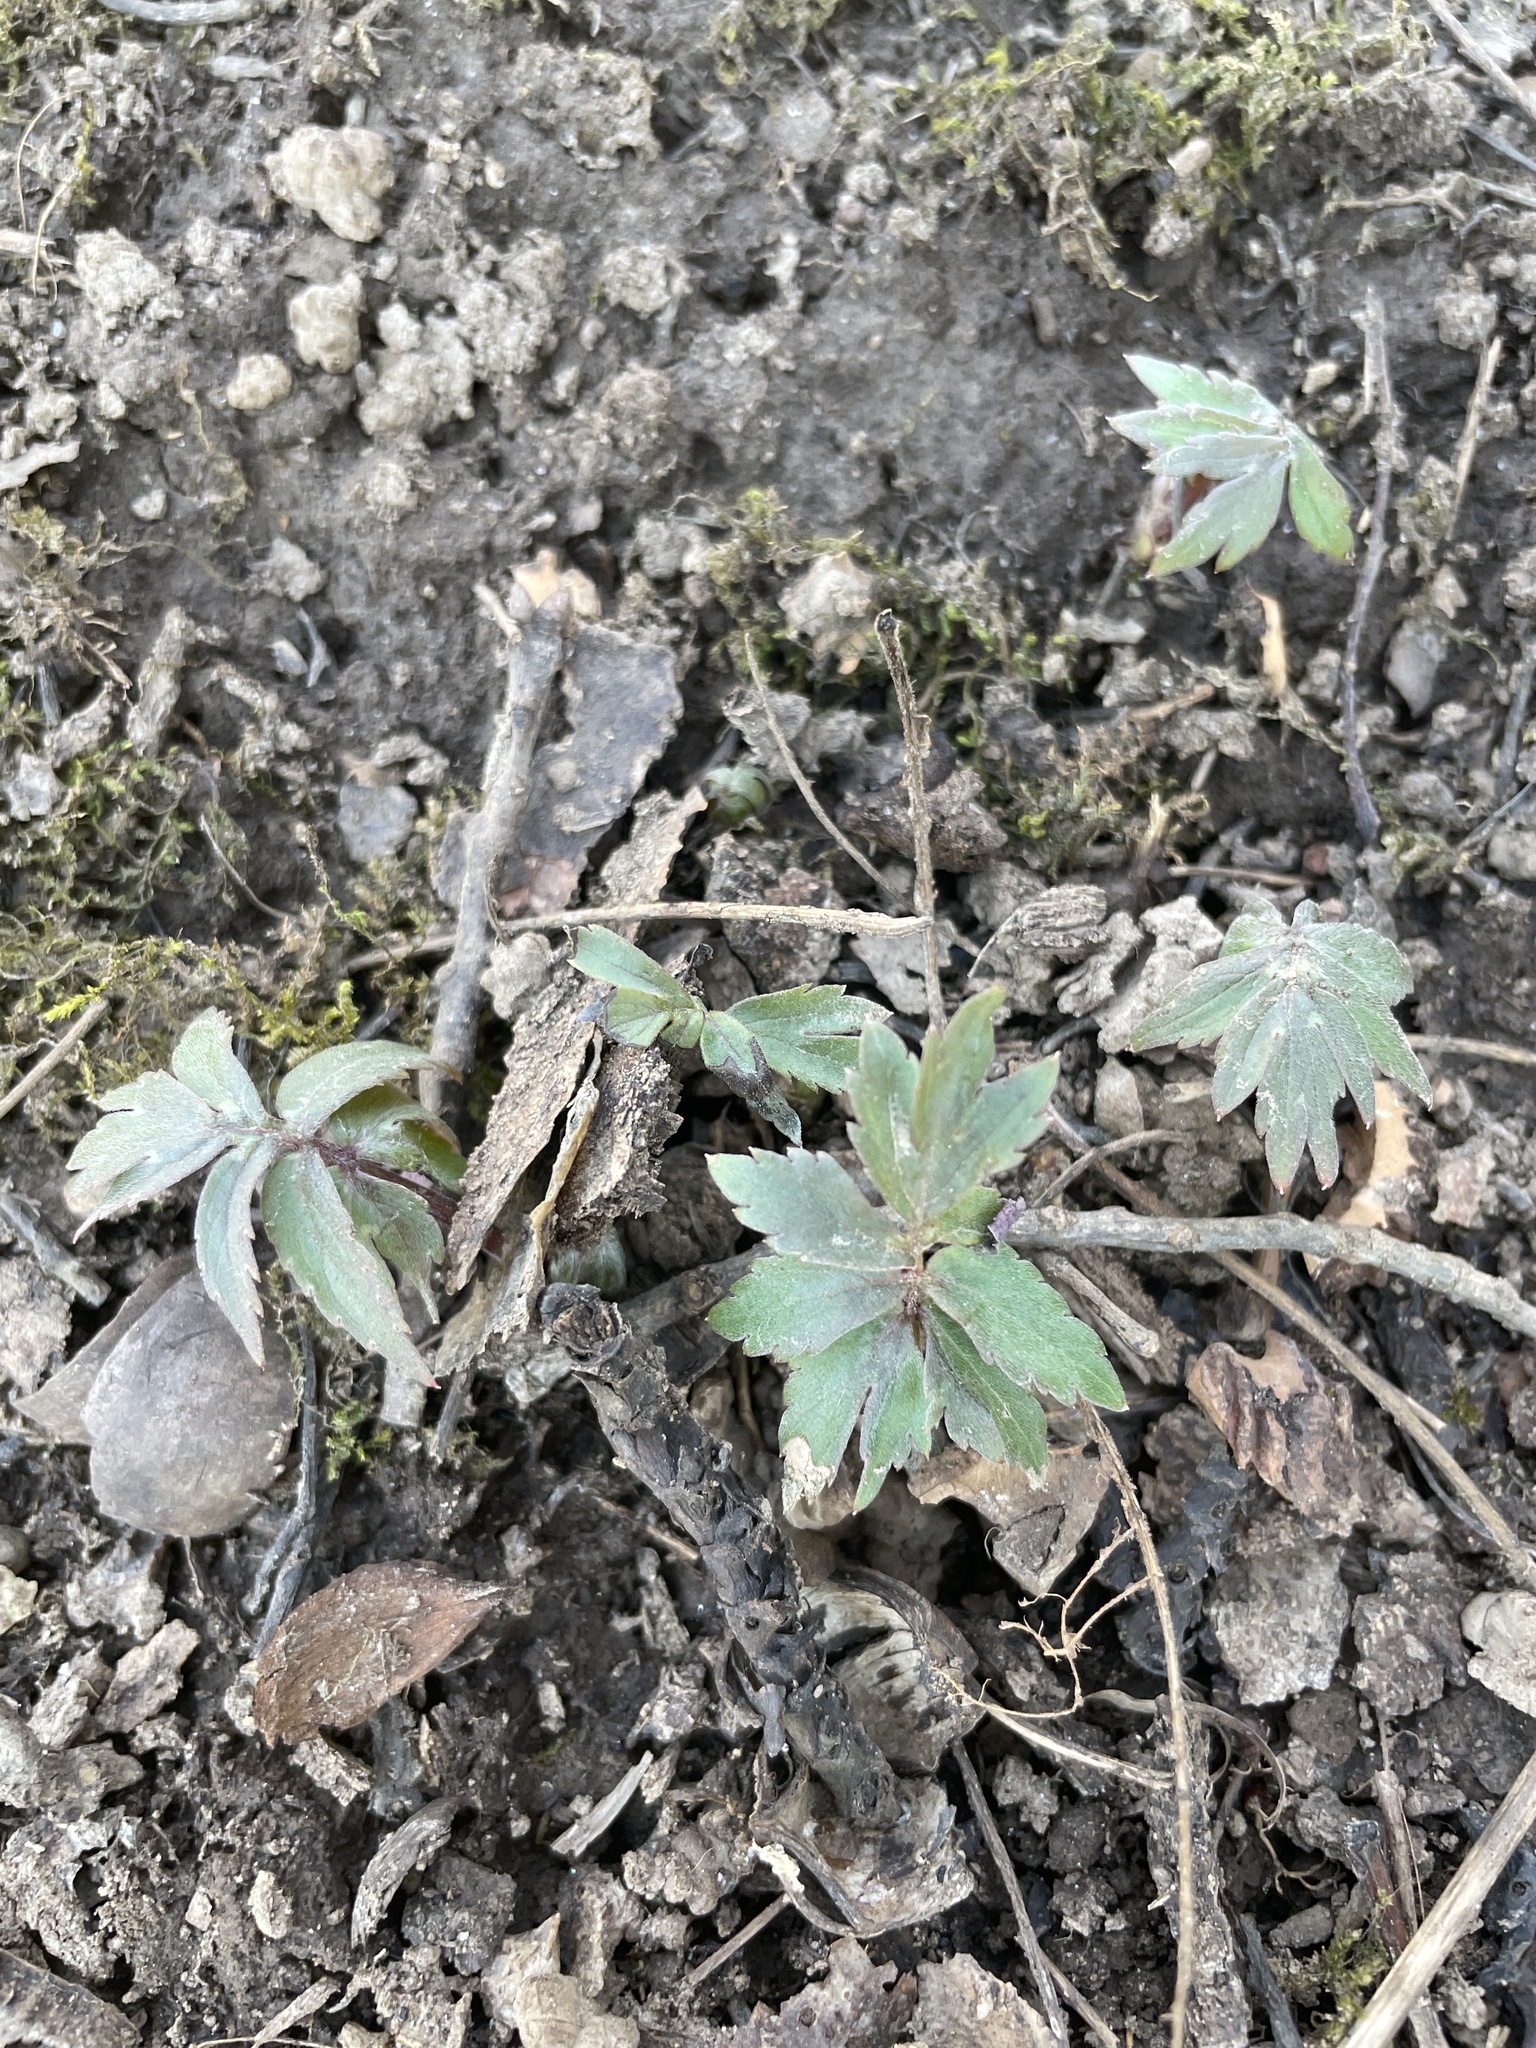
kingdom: Plantae
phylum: Tracheophyta
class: Magnoliopsida
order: Boraginales
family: Hydrophyllaceae
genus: Hydrophyllum
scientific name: Hydrophyllum virginianum
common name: Virginia waterleaf
